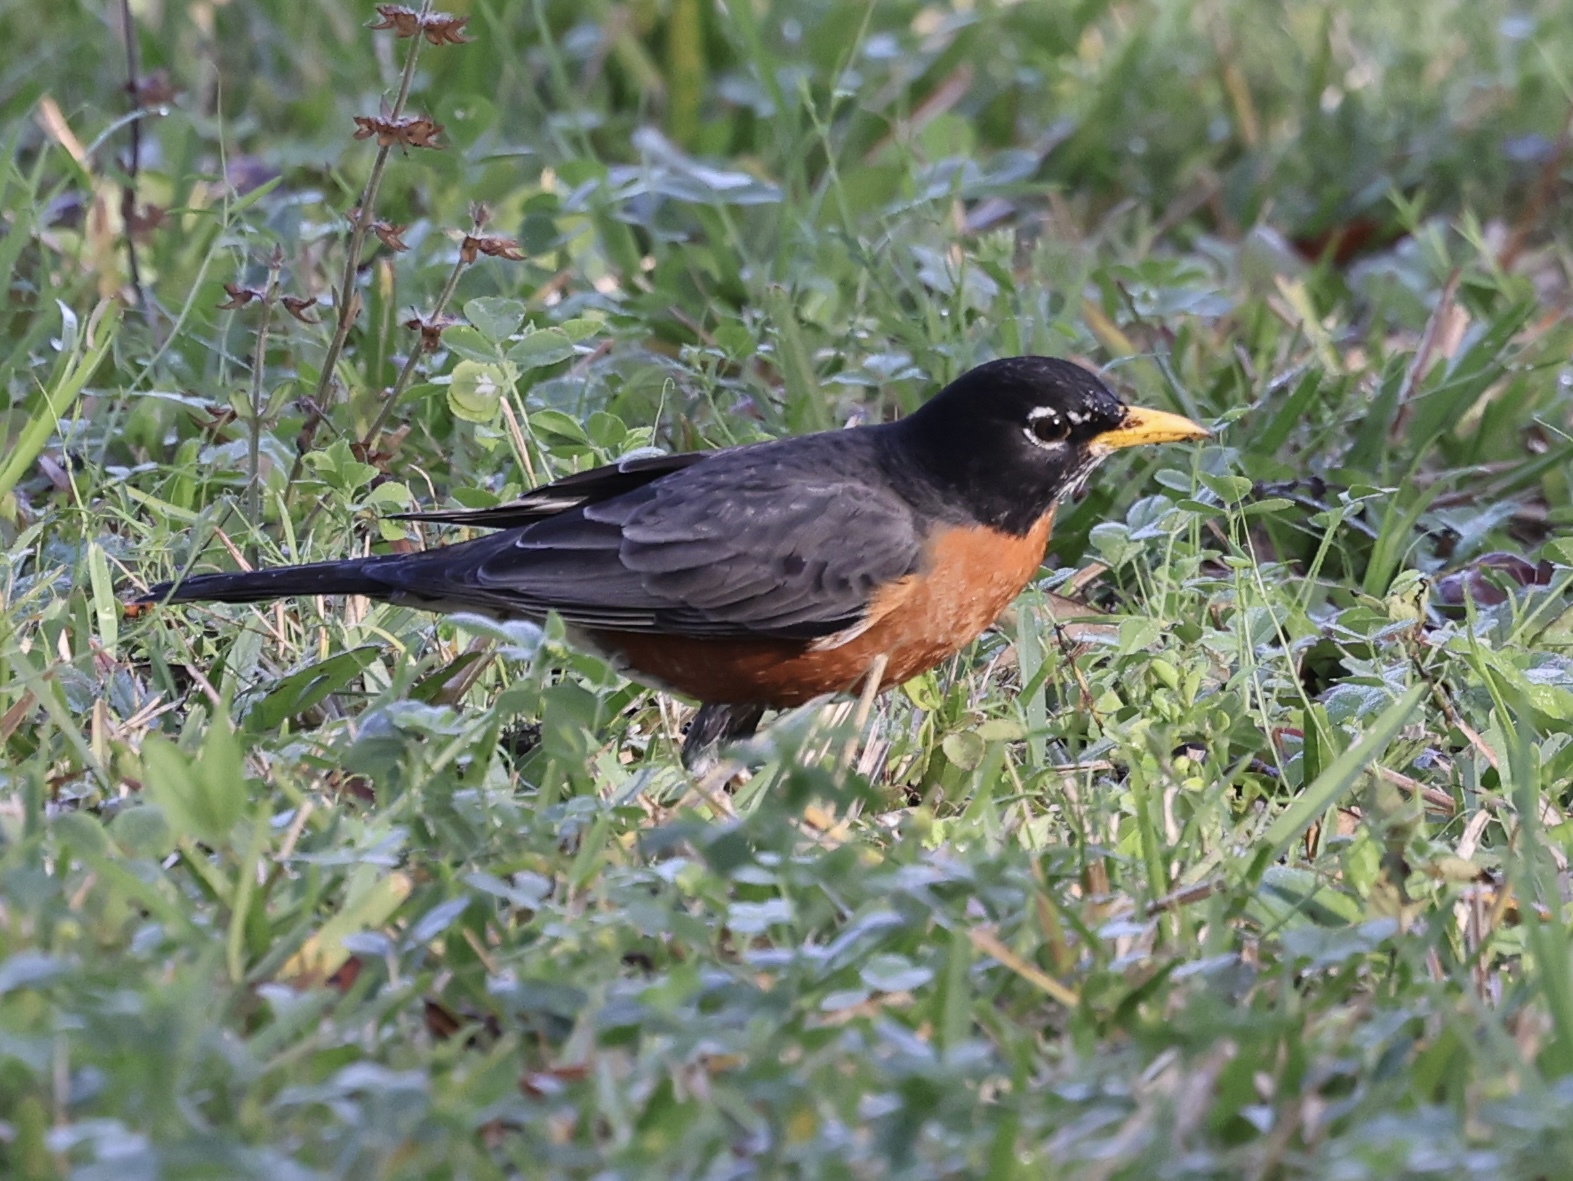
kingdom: Animalia
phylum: Chordata
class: Aves
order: Passeriformes
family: Turdidae
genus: Turdus
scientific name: Turdus migratorius
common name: American robin
